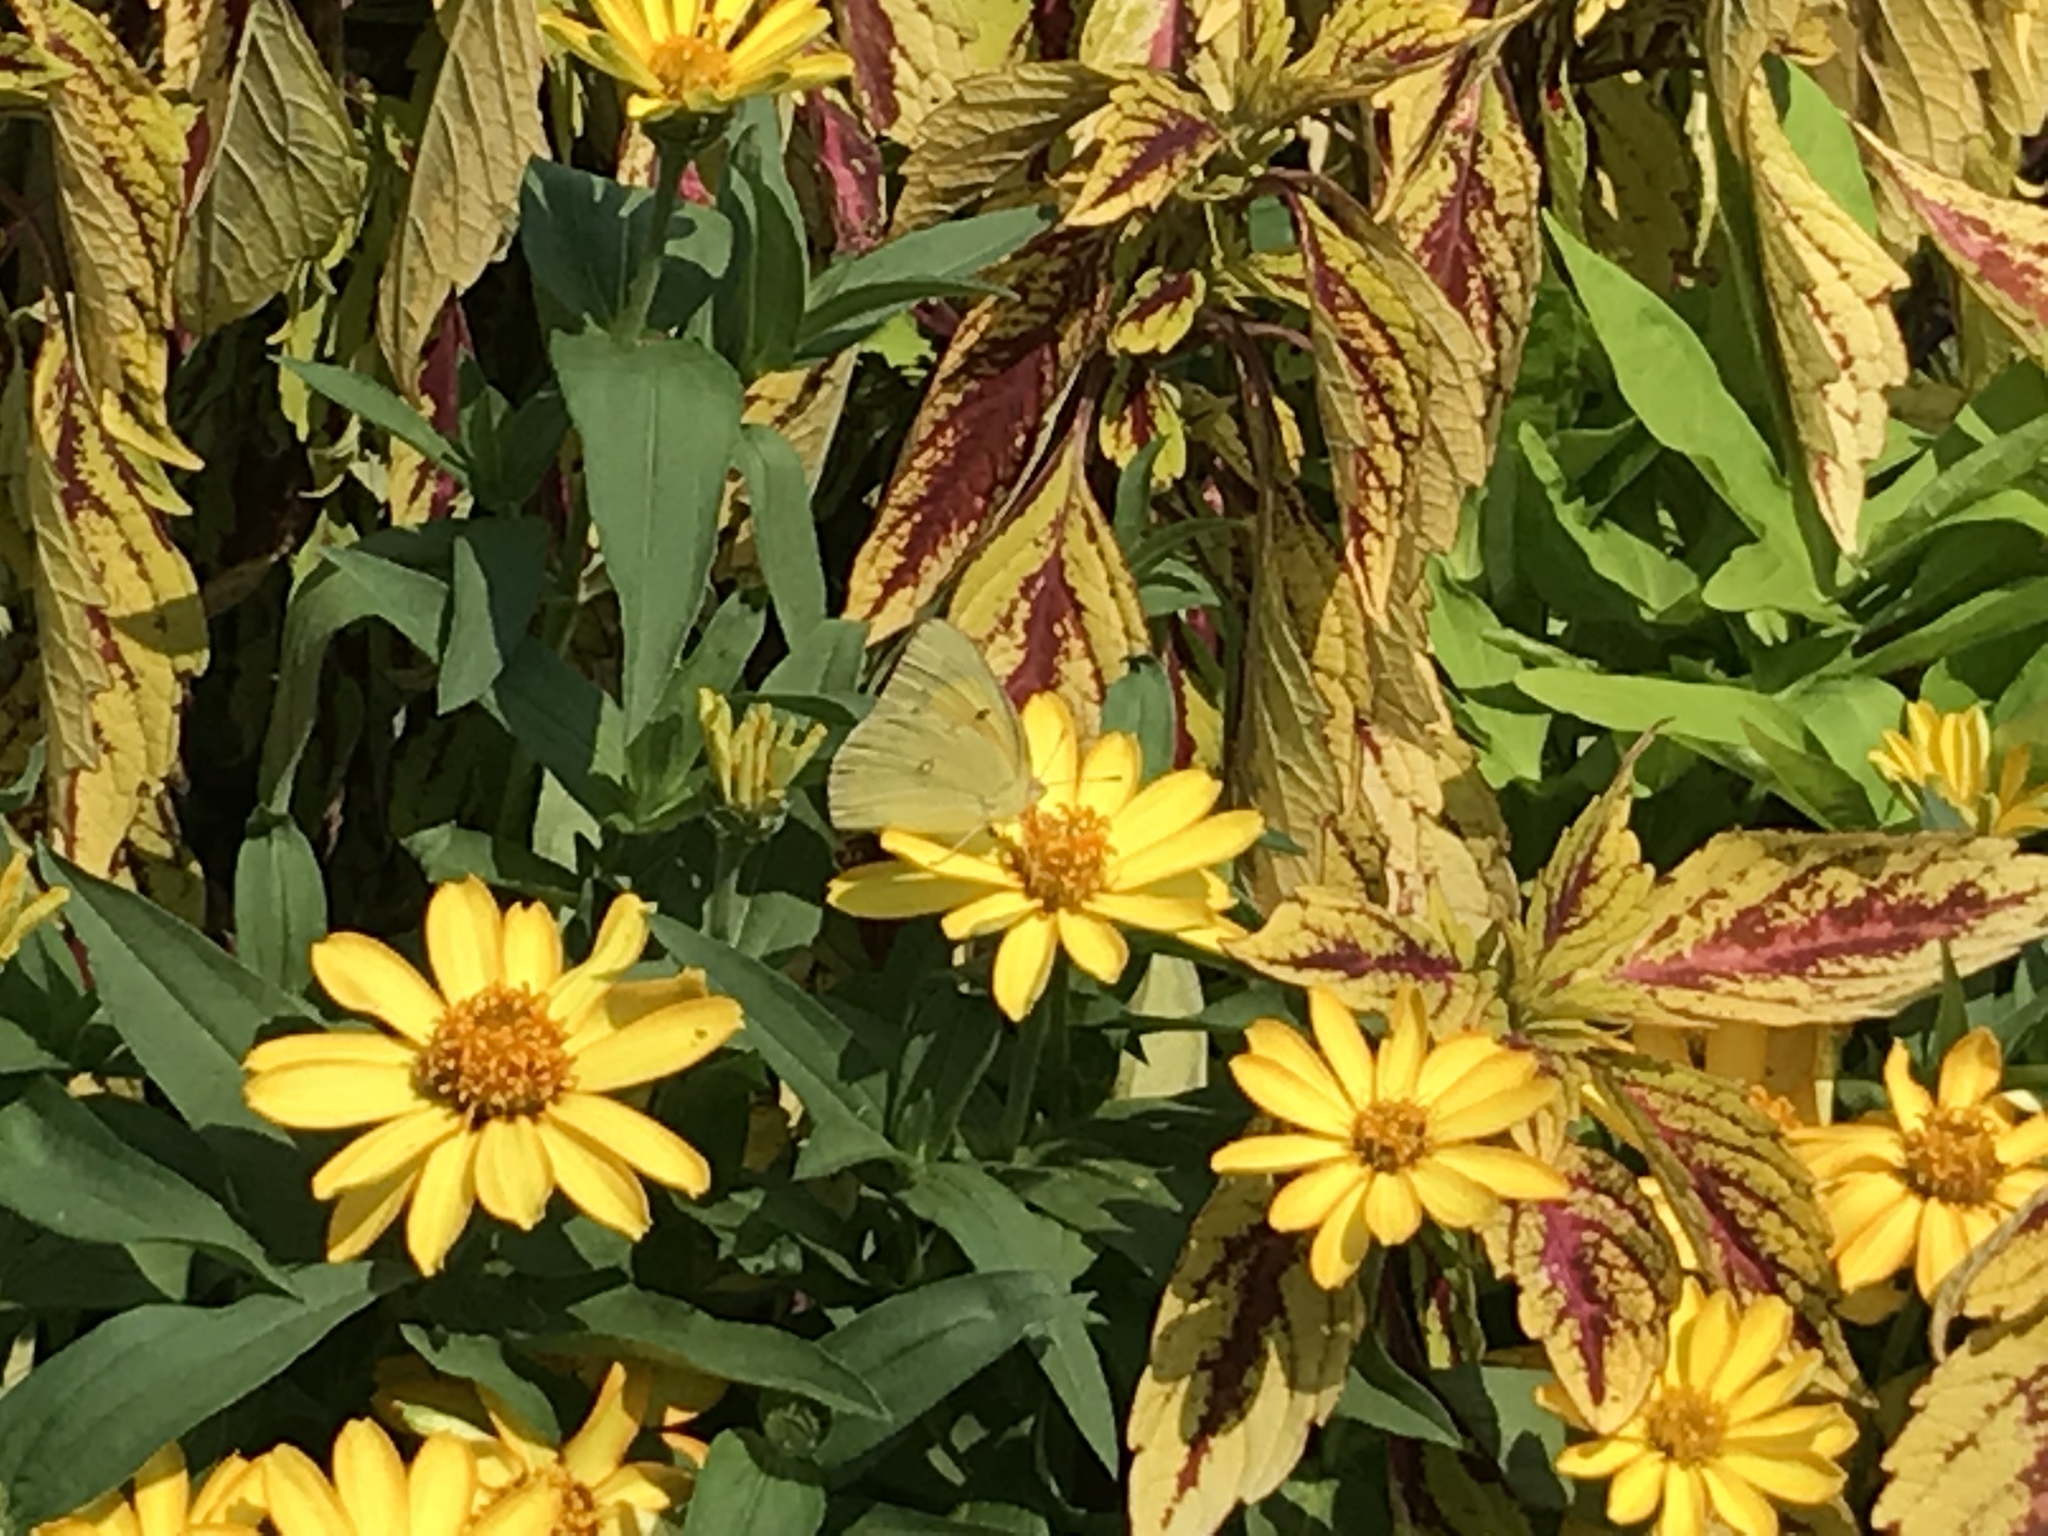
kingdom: Animalia
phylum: Arthropoda
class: Insecta
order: Lepidoptera
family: Pieridae
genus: Colias
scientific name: Colias eurytheme
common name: Alfalfa butterfly
